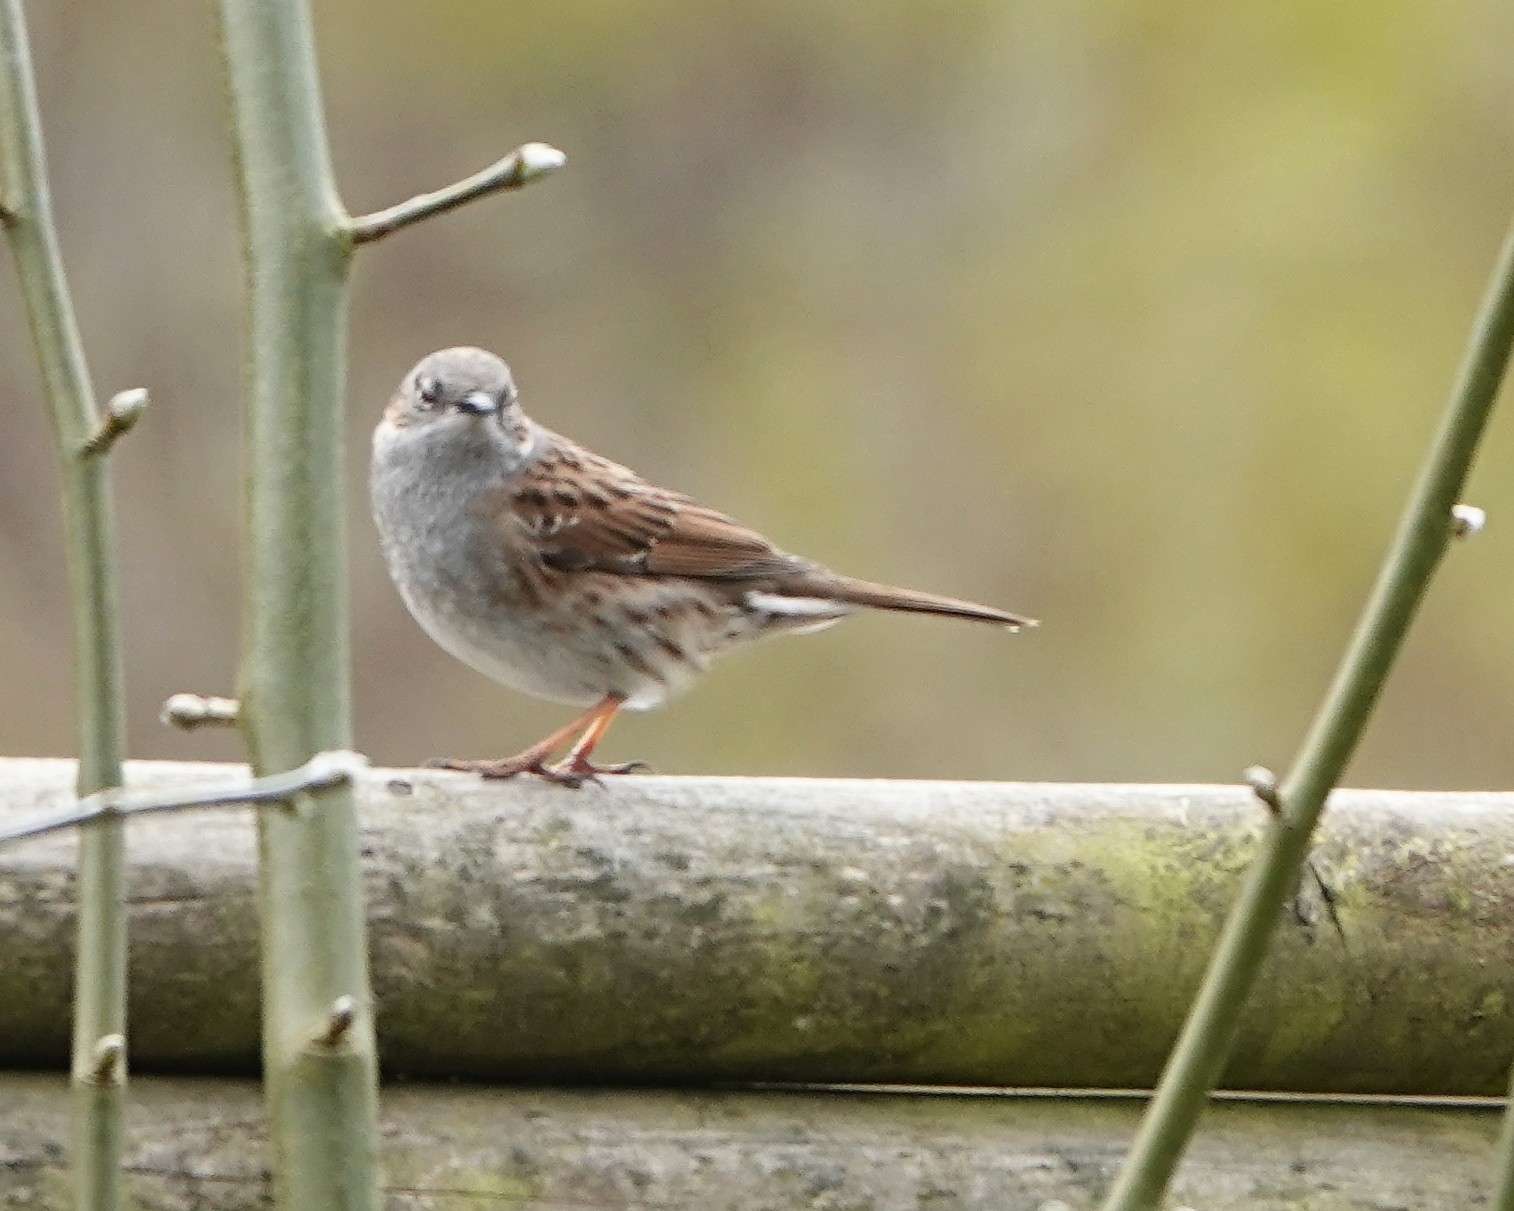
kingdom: Animalia
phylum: Chordata
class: Aves
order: Passeriformes
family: Prunellidae
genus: Prunella
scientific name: Prunella modularis
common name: Dunnock
